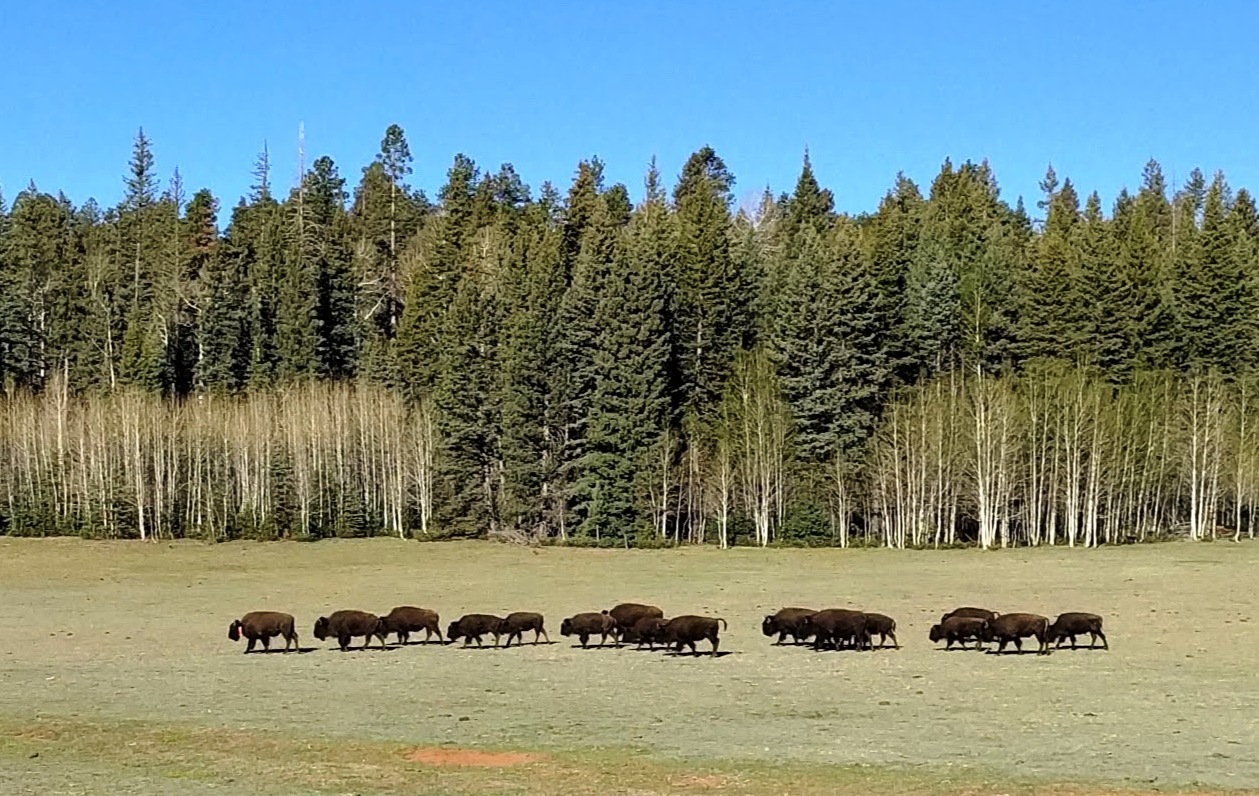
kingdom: Animalia
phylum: Chordata
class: Mammalia
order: Artiodactyla
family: Bovidae
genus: Bison
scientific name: Bison bison
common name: American bison
